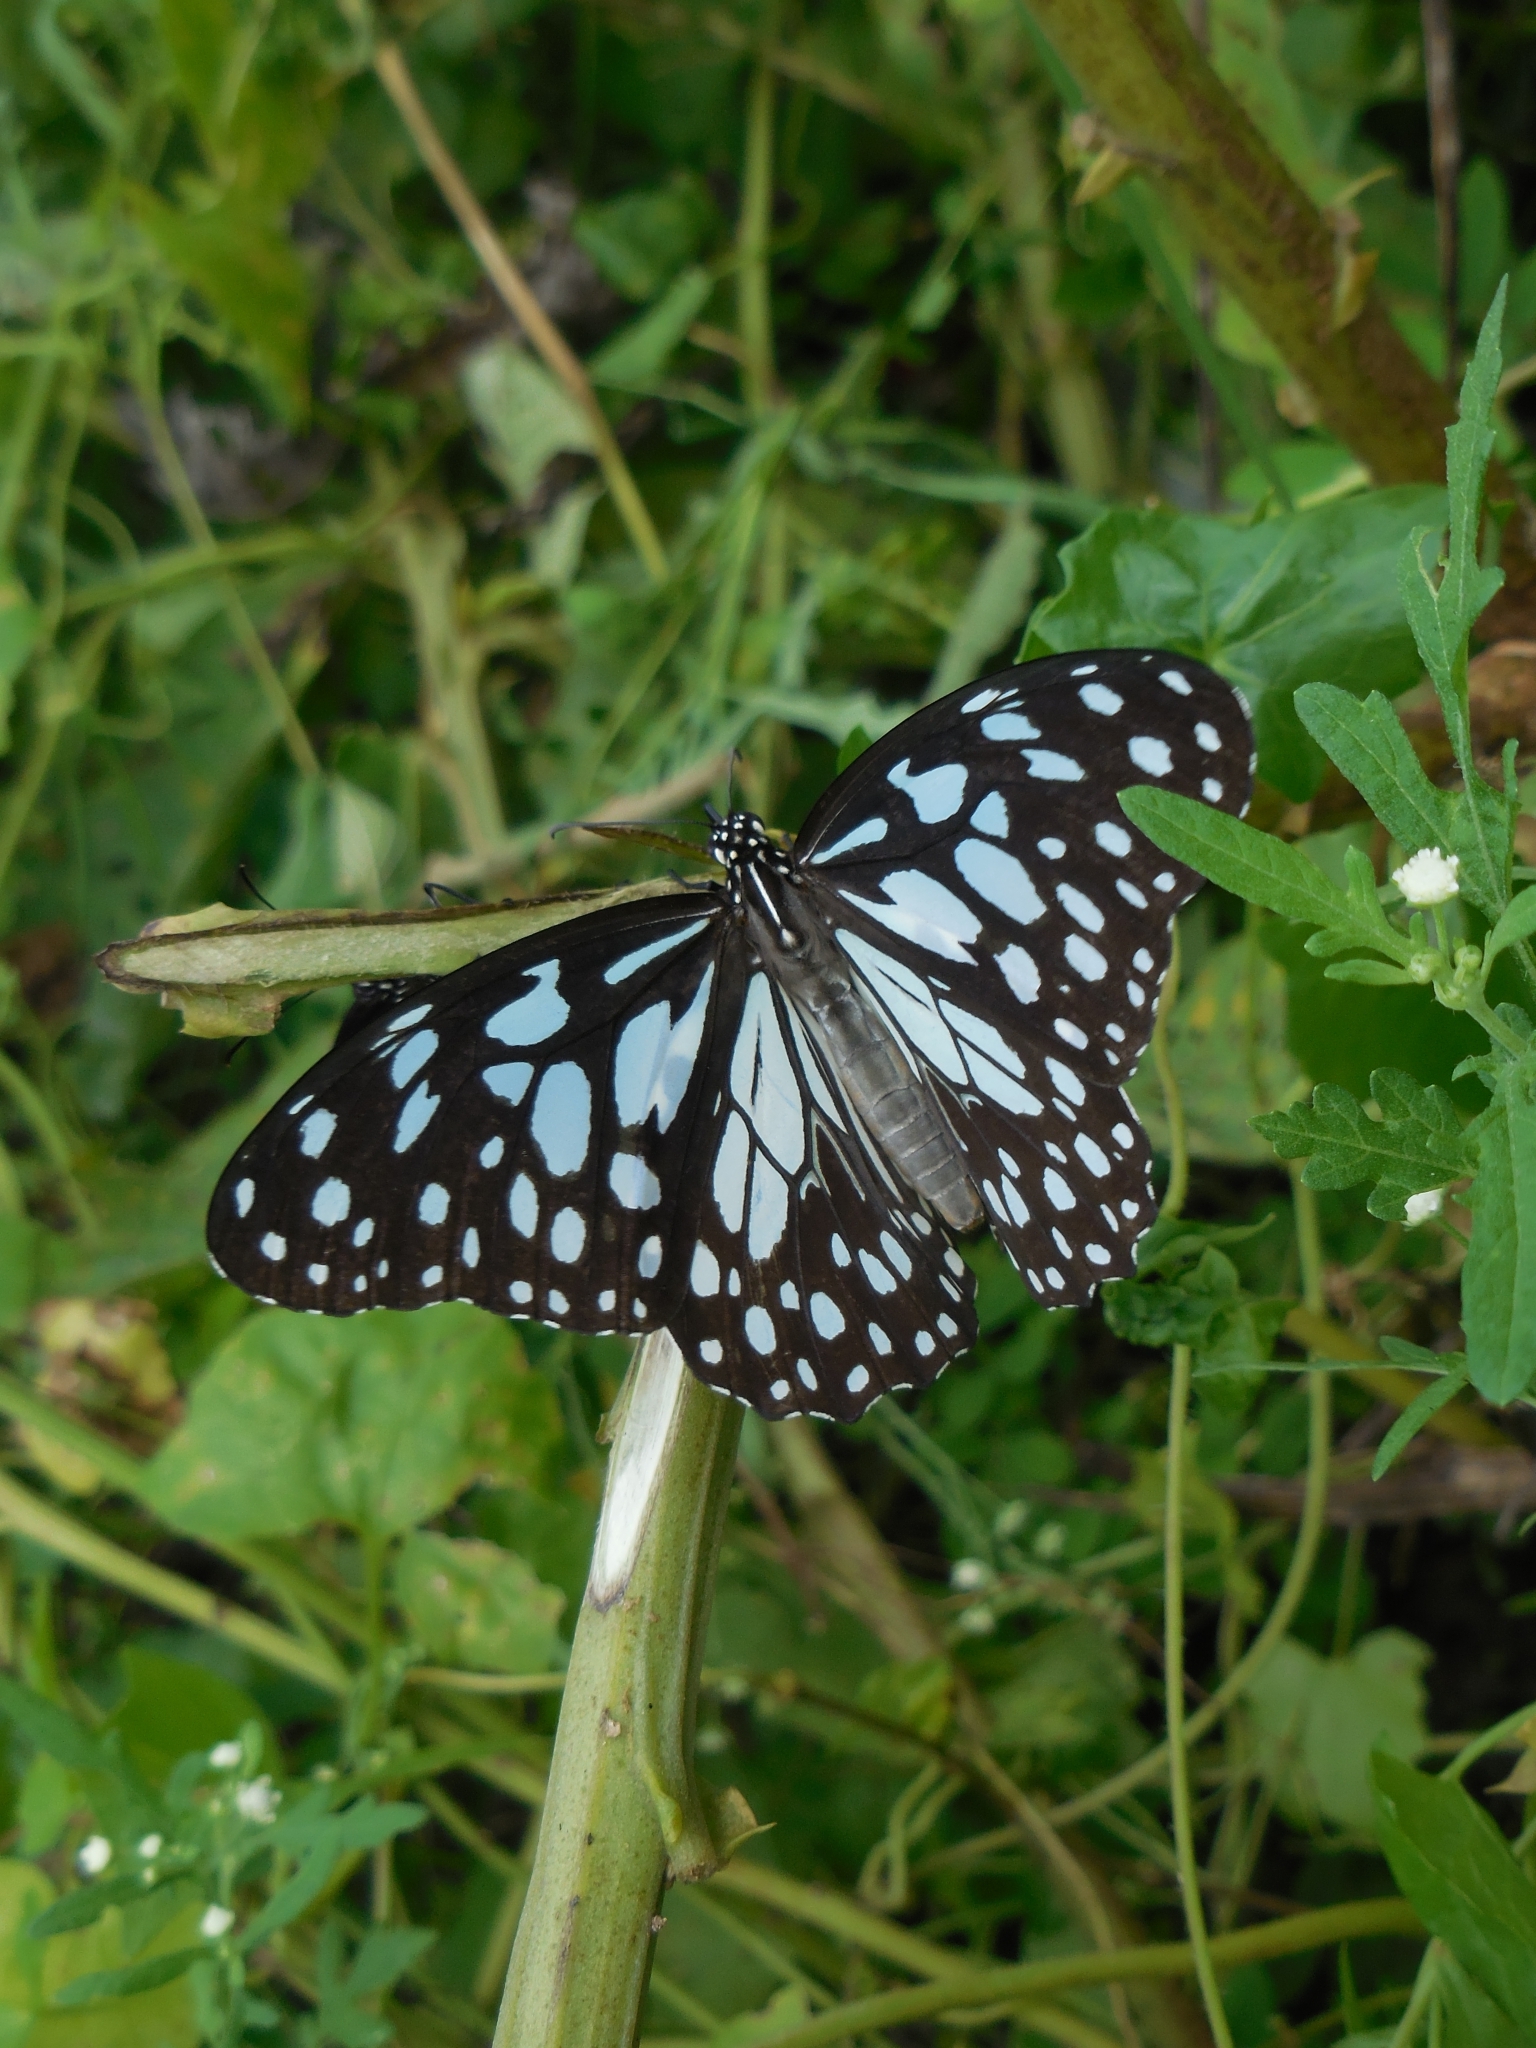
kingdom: Animalia
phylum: Arthropoda
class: Insecta
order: Lepidoptera
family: Nymphalidae
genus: Tirumala
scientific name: Tirumala limniace
